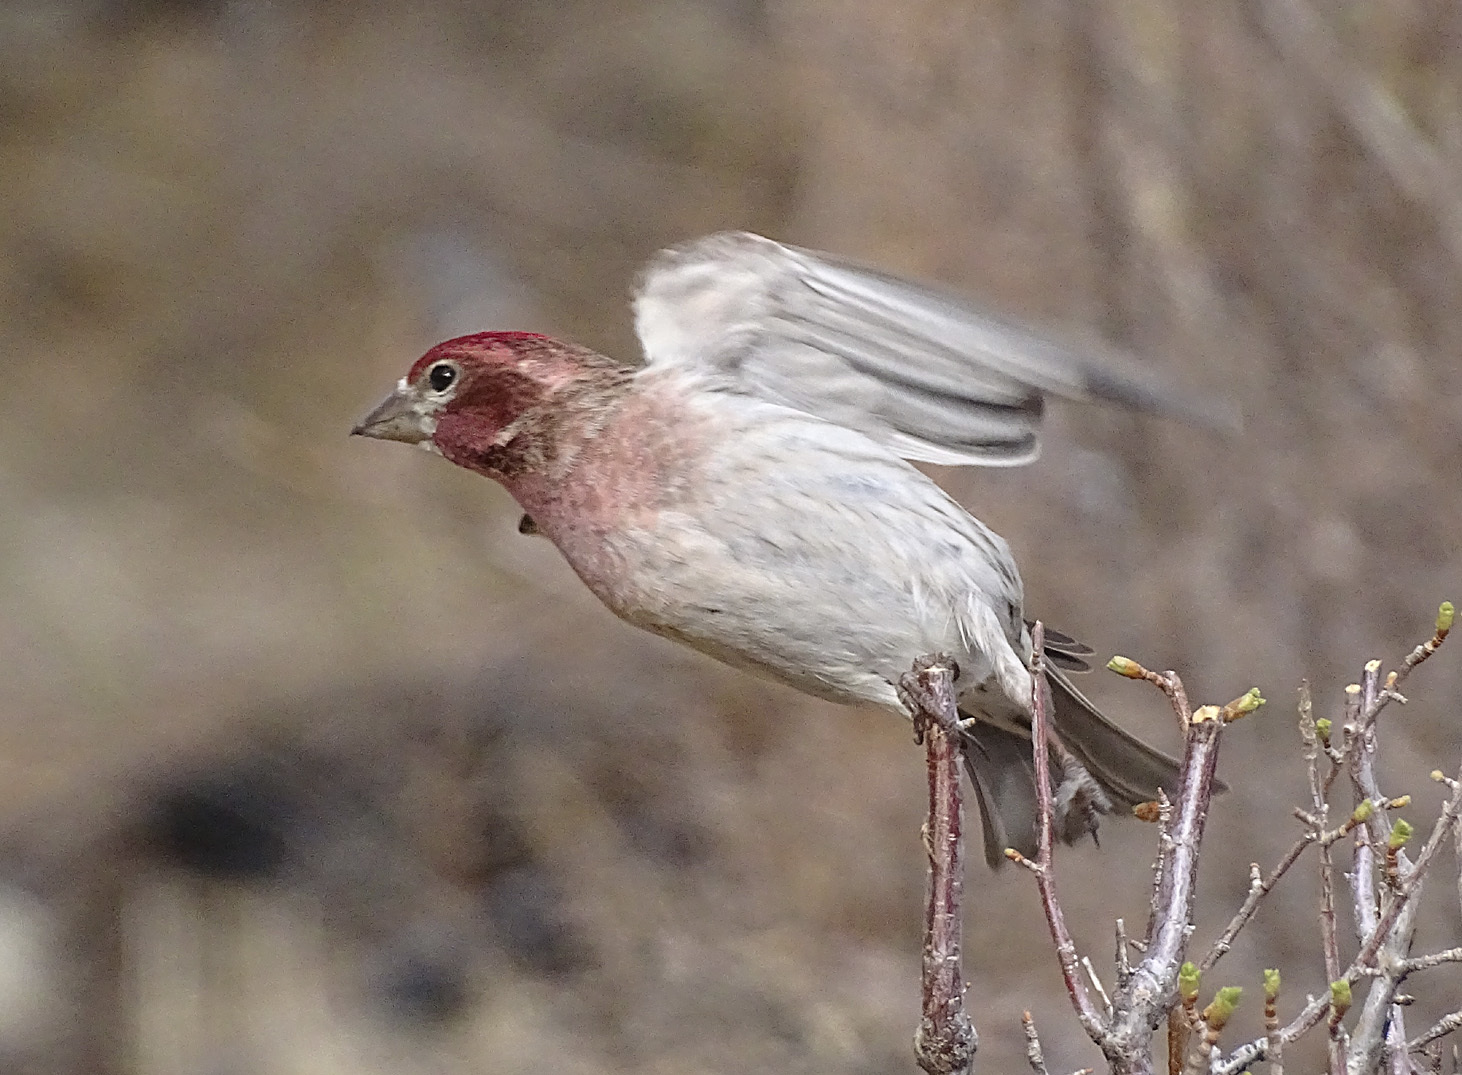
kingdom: Animalia
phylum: Chordata
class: Aves
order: Passeriformes
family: Fringillidae
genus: Haemorhous
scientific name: Haemorhous cassinii
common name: Cassin's finch
